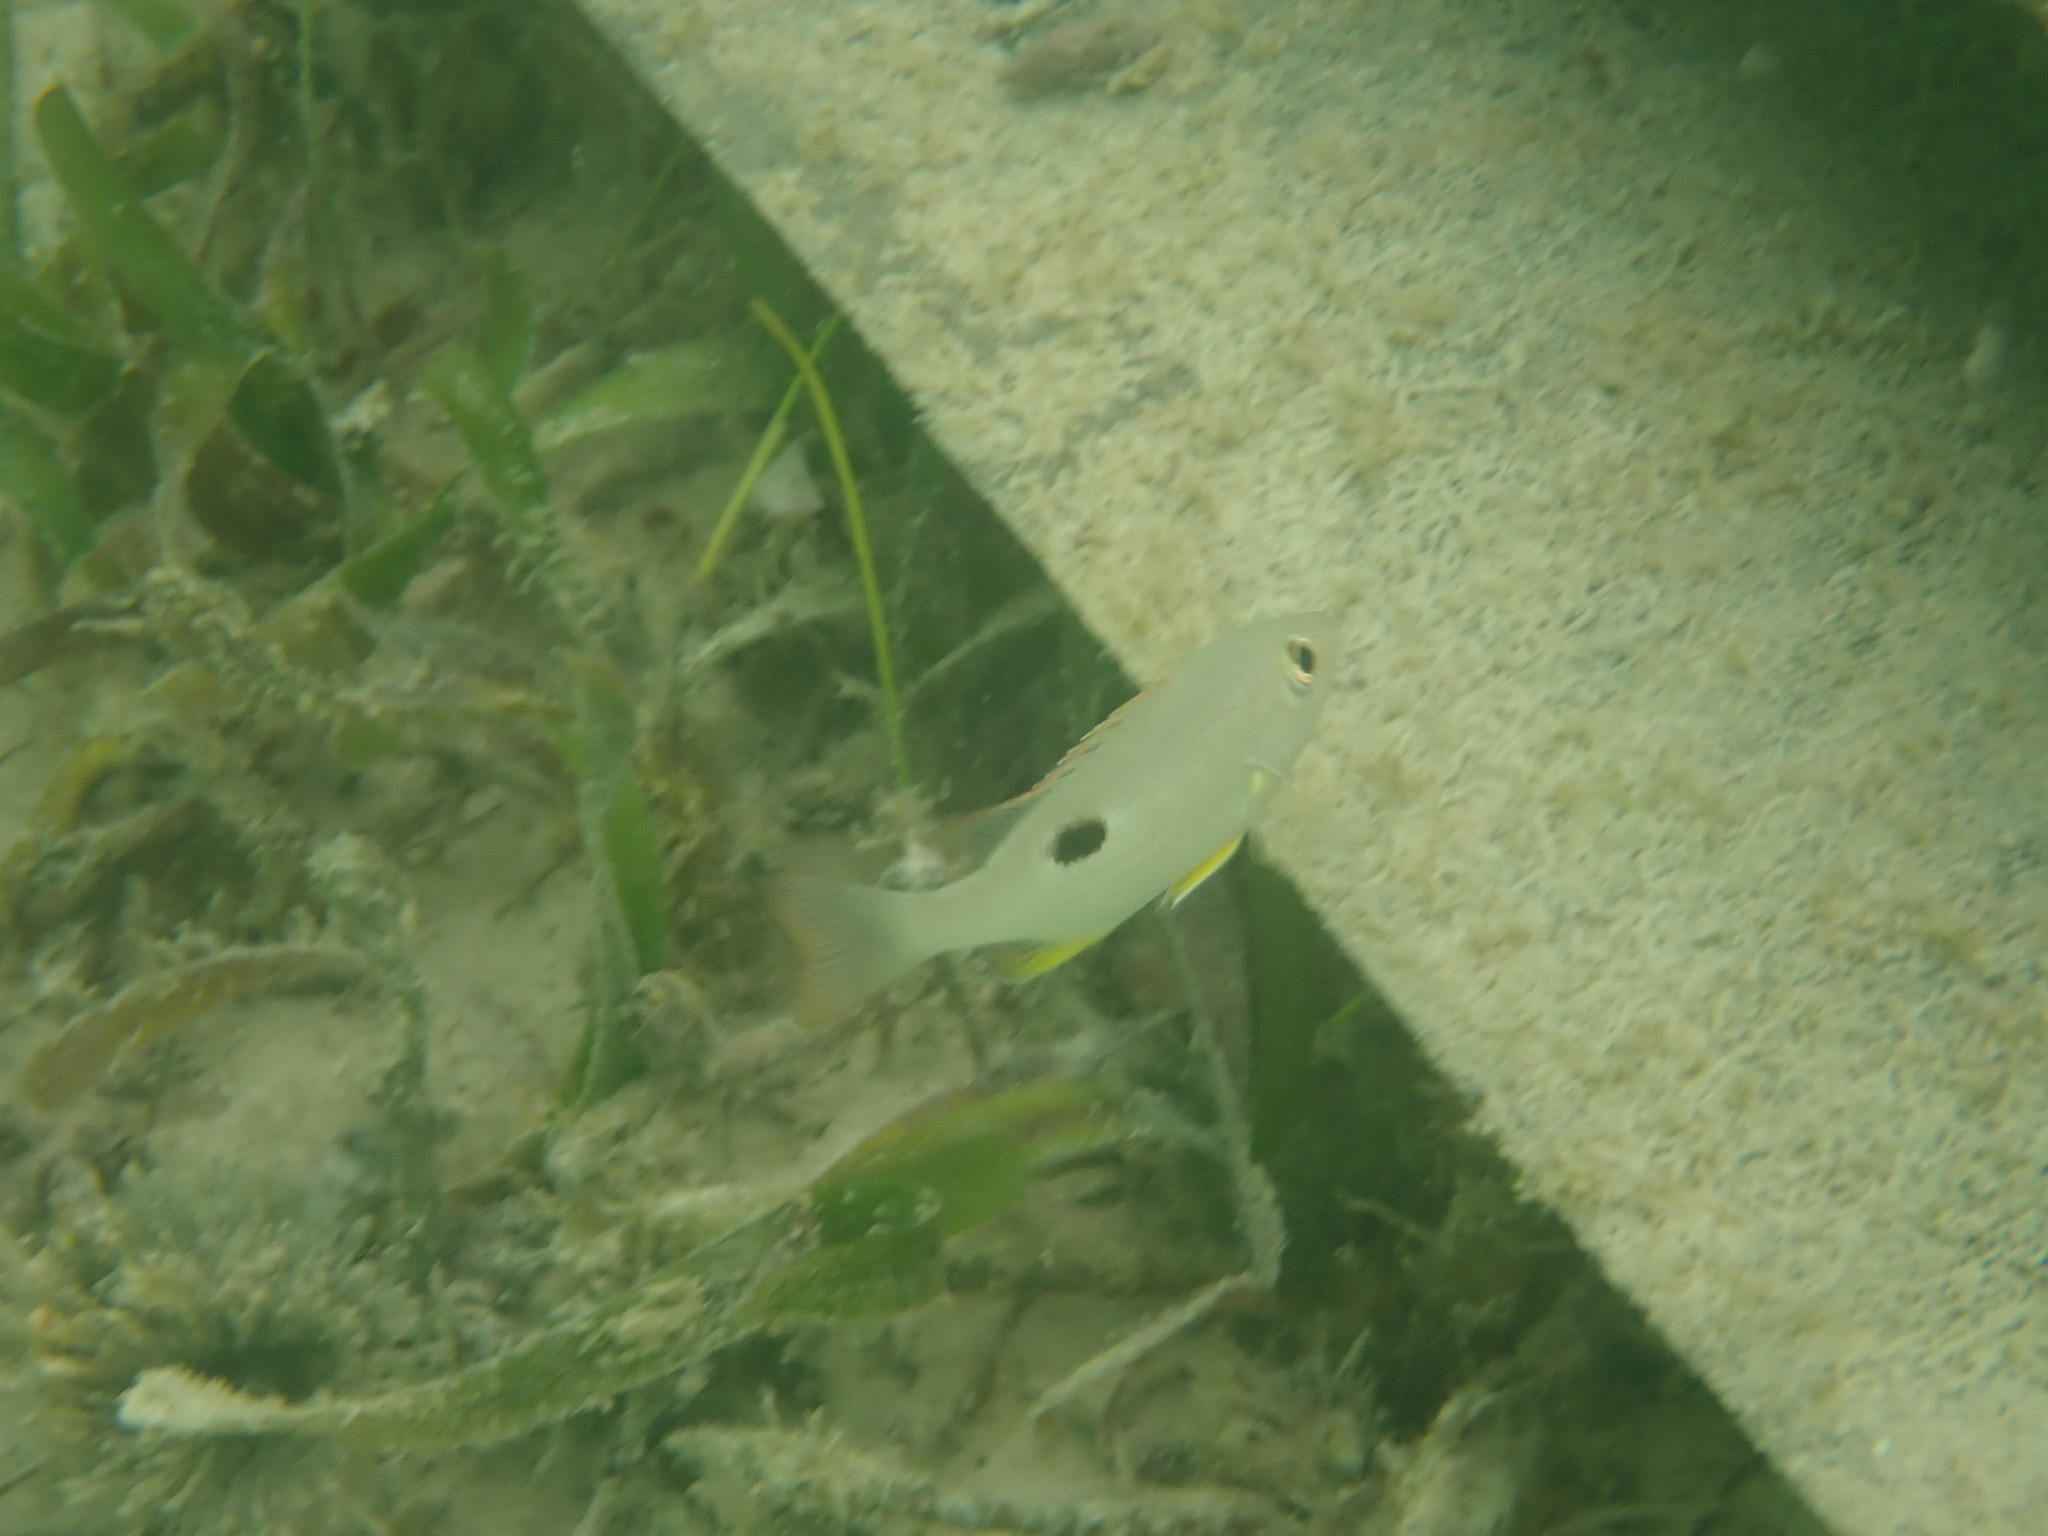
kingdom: Animalia
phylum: Chordata
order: Perciformes
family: Lutjanidae
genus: Lutjanus
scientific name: Lutjanus
